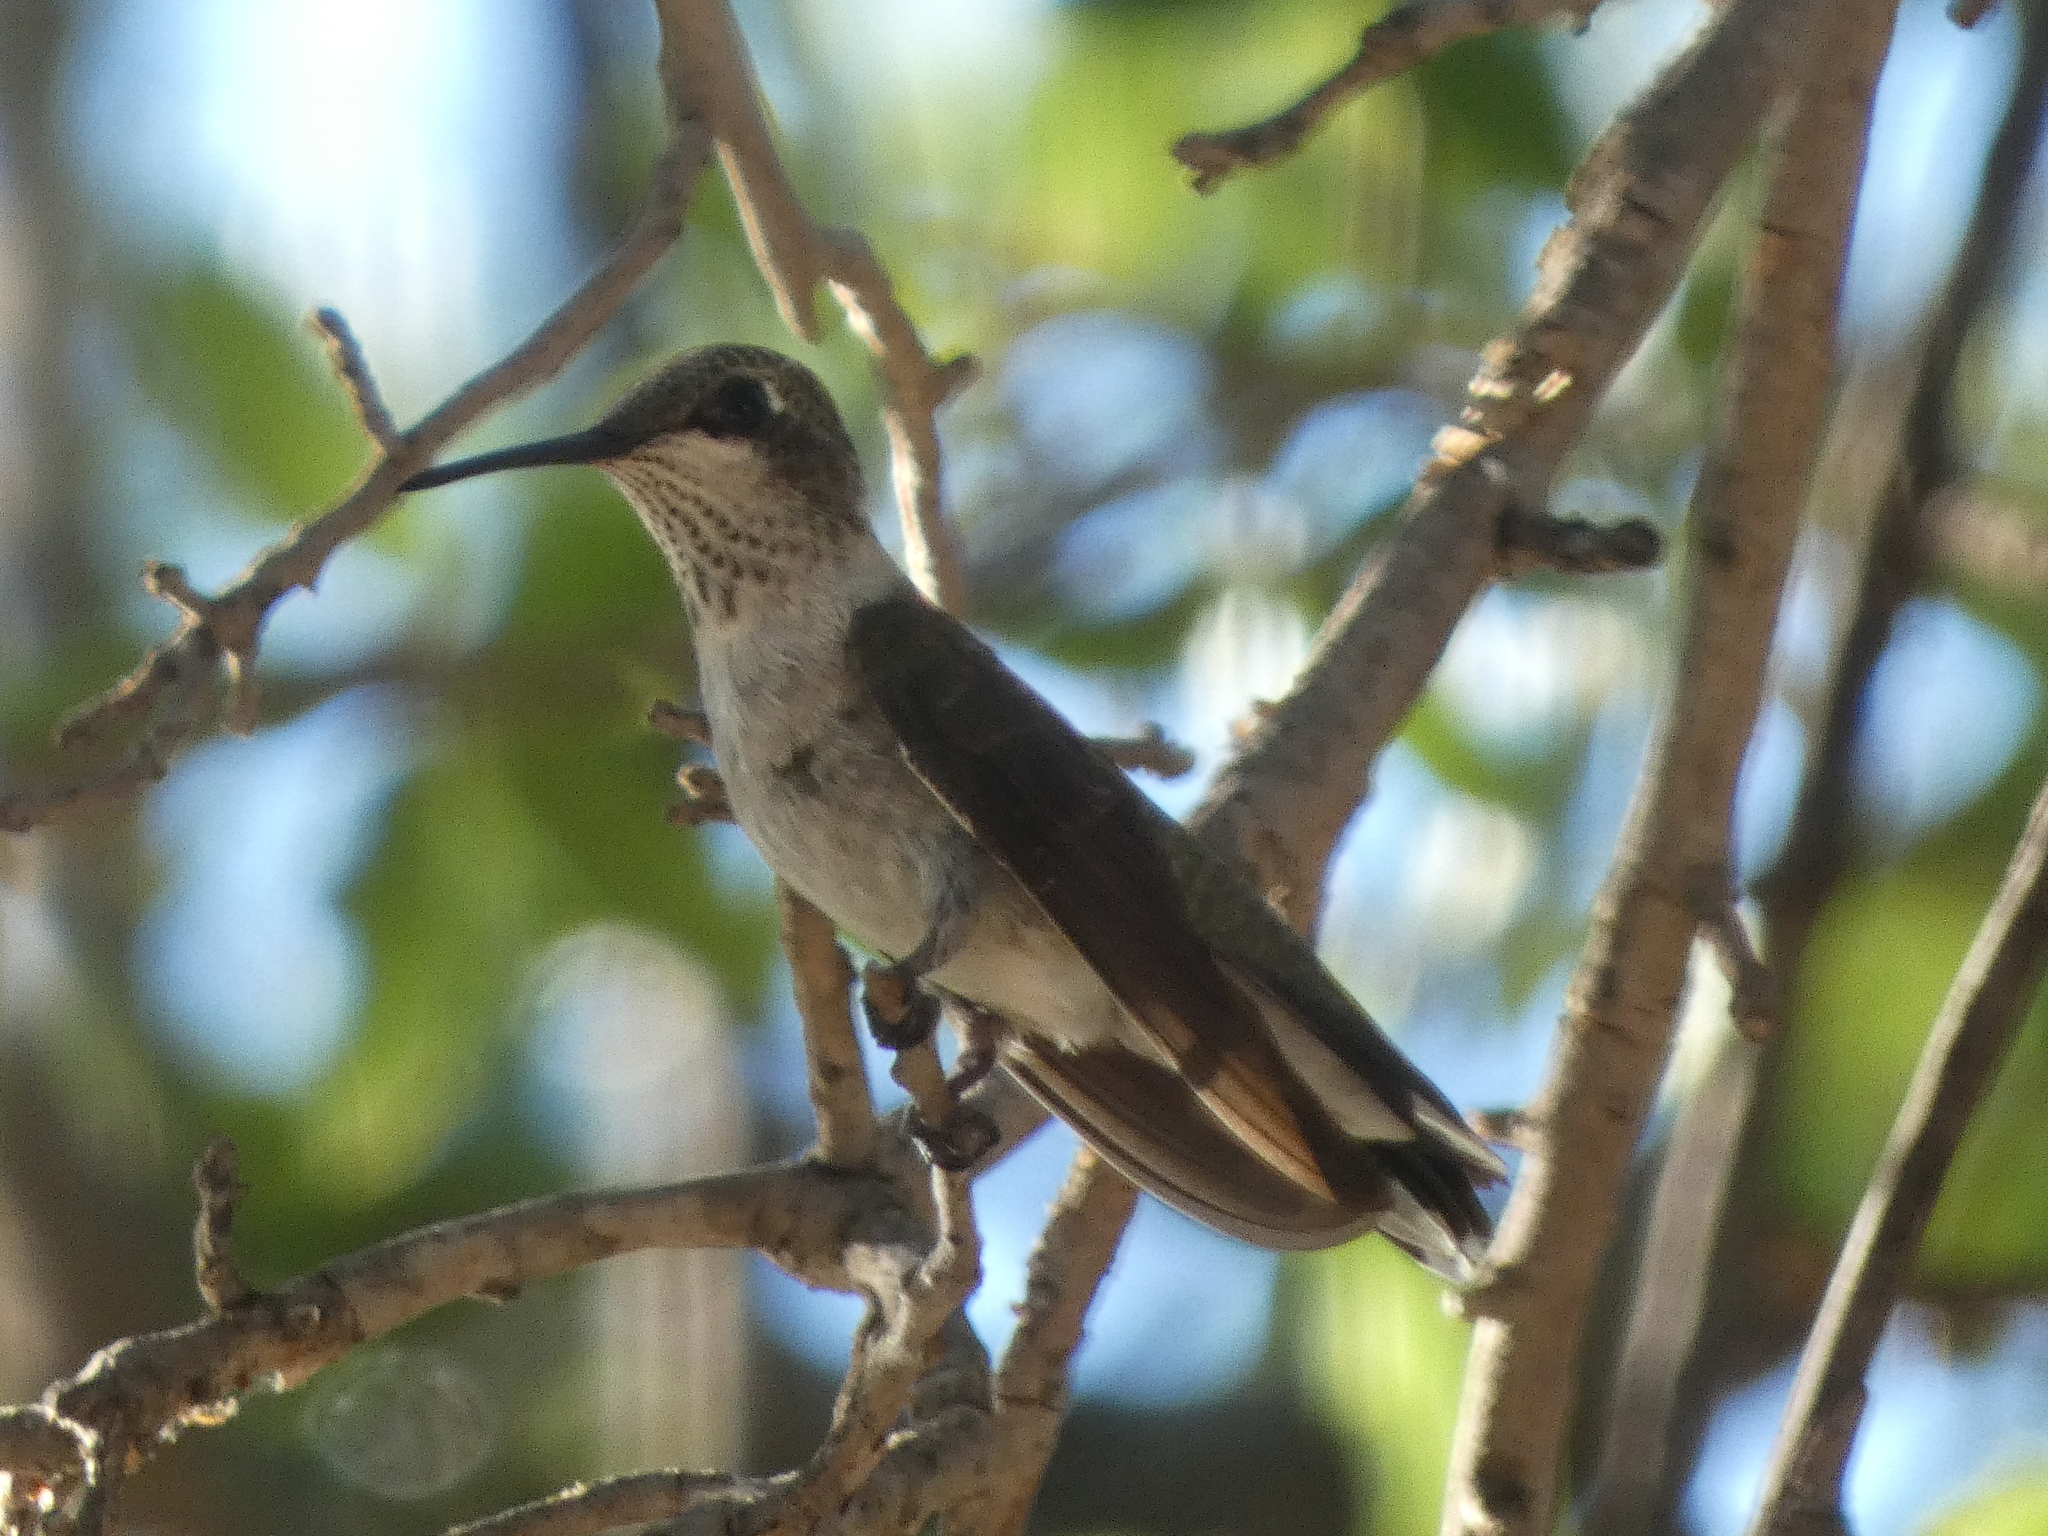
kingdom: Animalia
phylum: Chordata
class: Aves
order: Apodiformes
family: Trochilidae
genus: Archilochus
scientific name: Archilochus alexandri
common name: Black-chinned hummingbird
